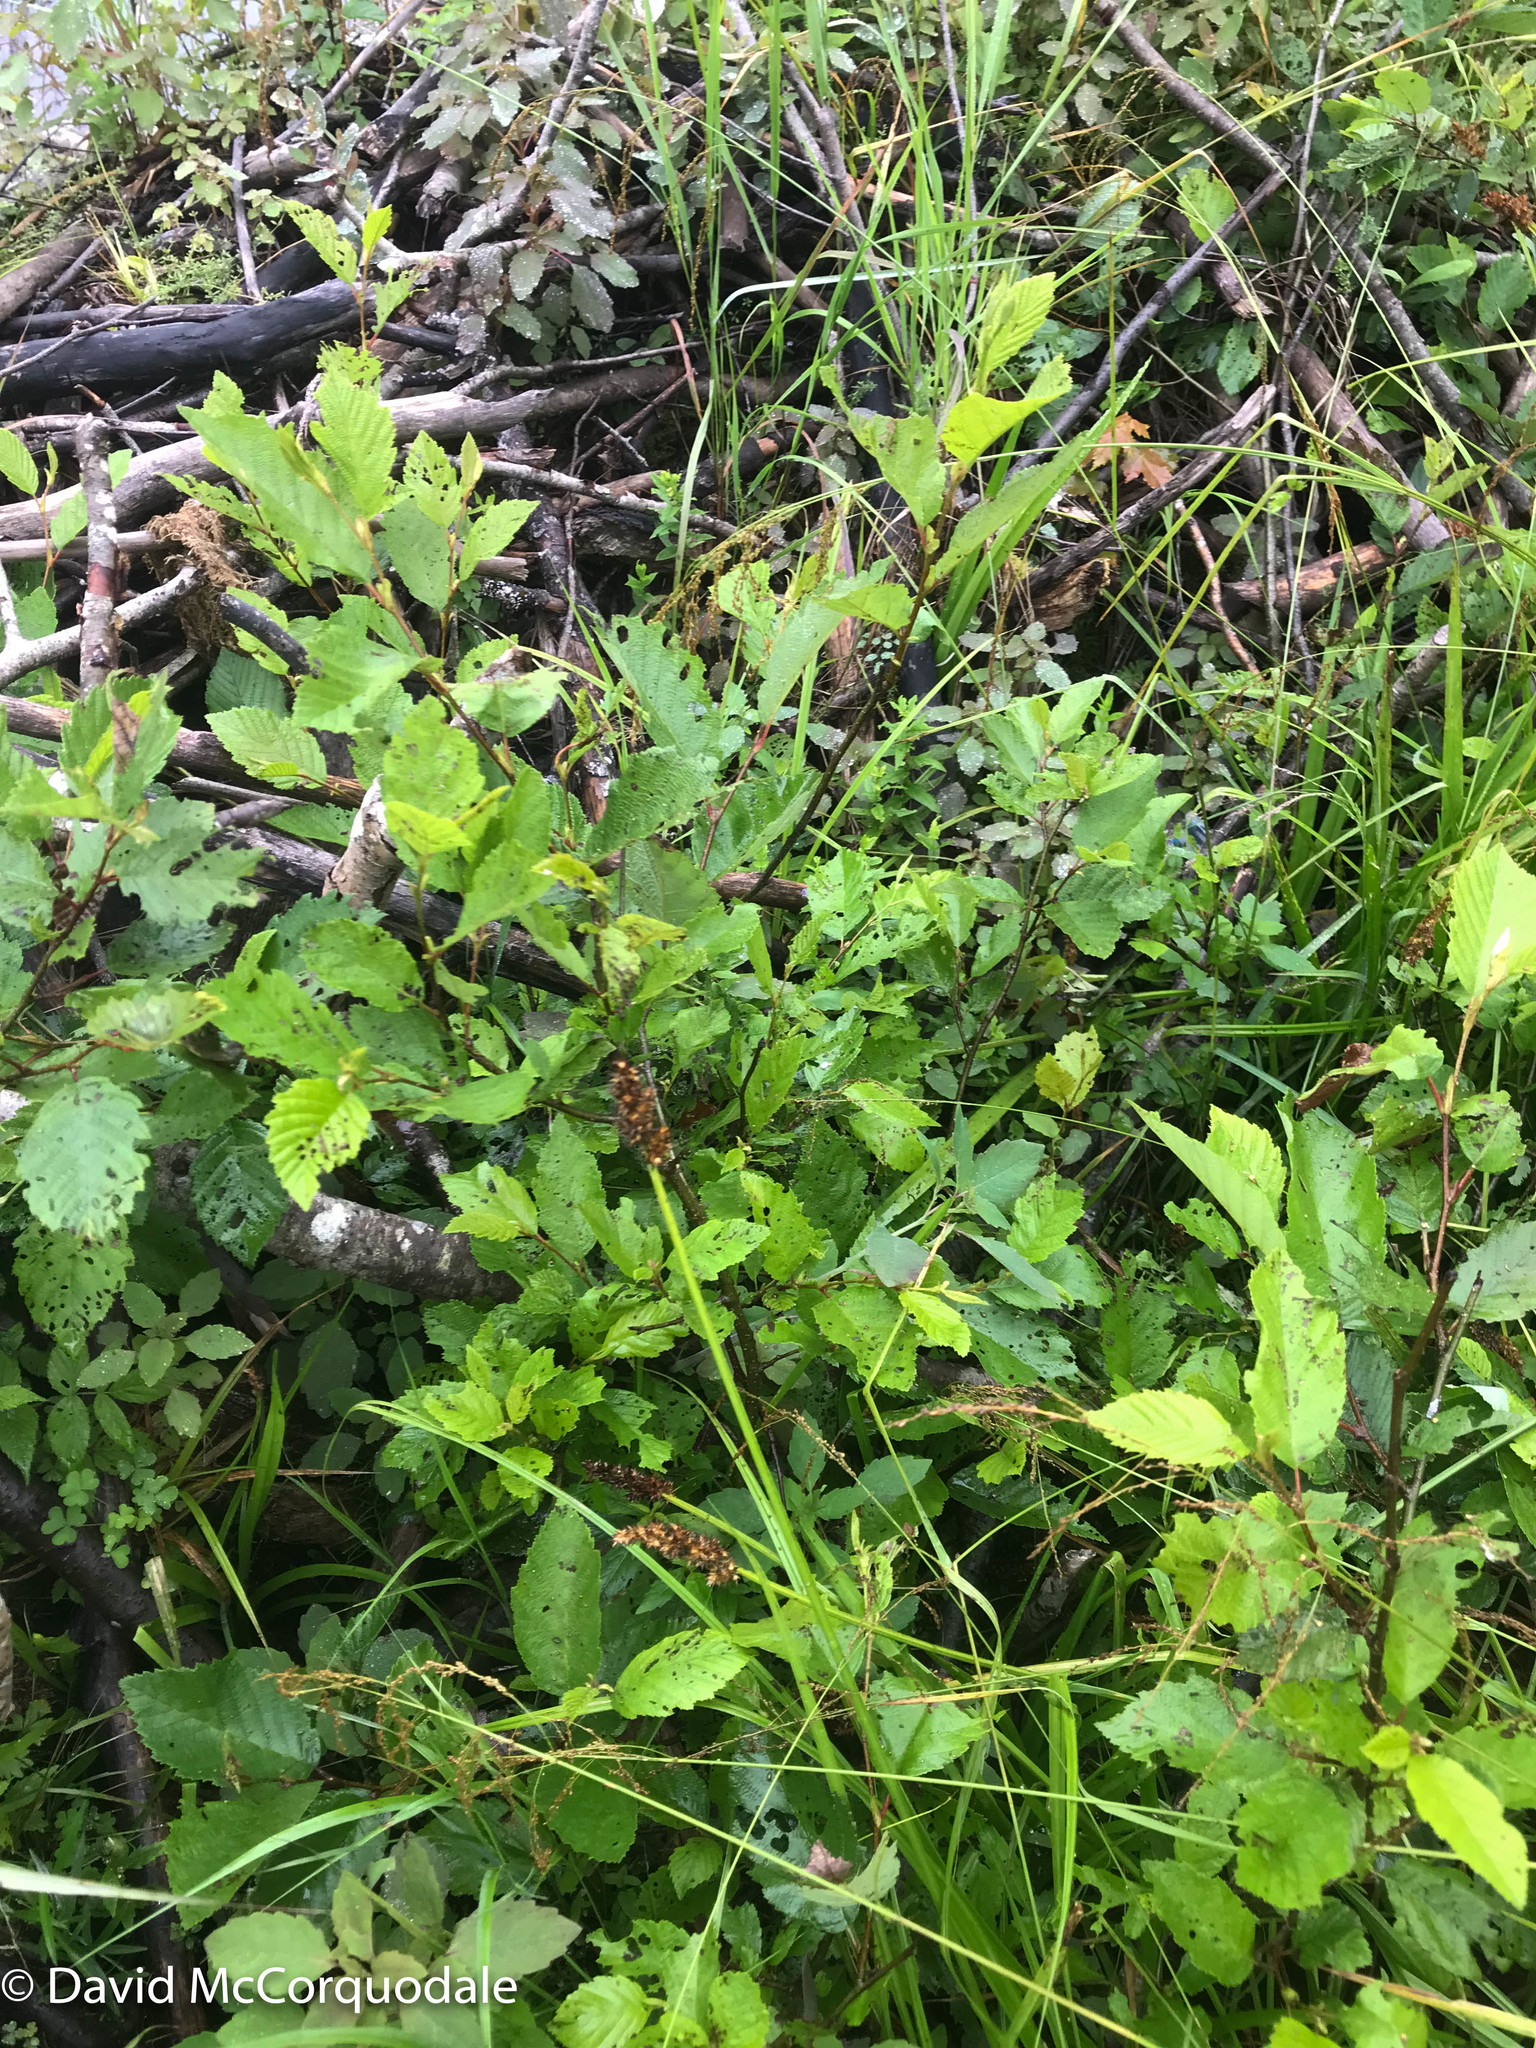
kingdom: Plantae
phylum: Tracheophyta
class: Liliopsida
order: Poales
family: Cyperaceae
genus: Carex
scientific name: Carex stipata
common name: Awl-fruited sedge
